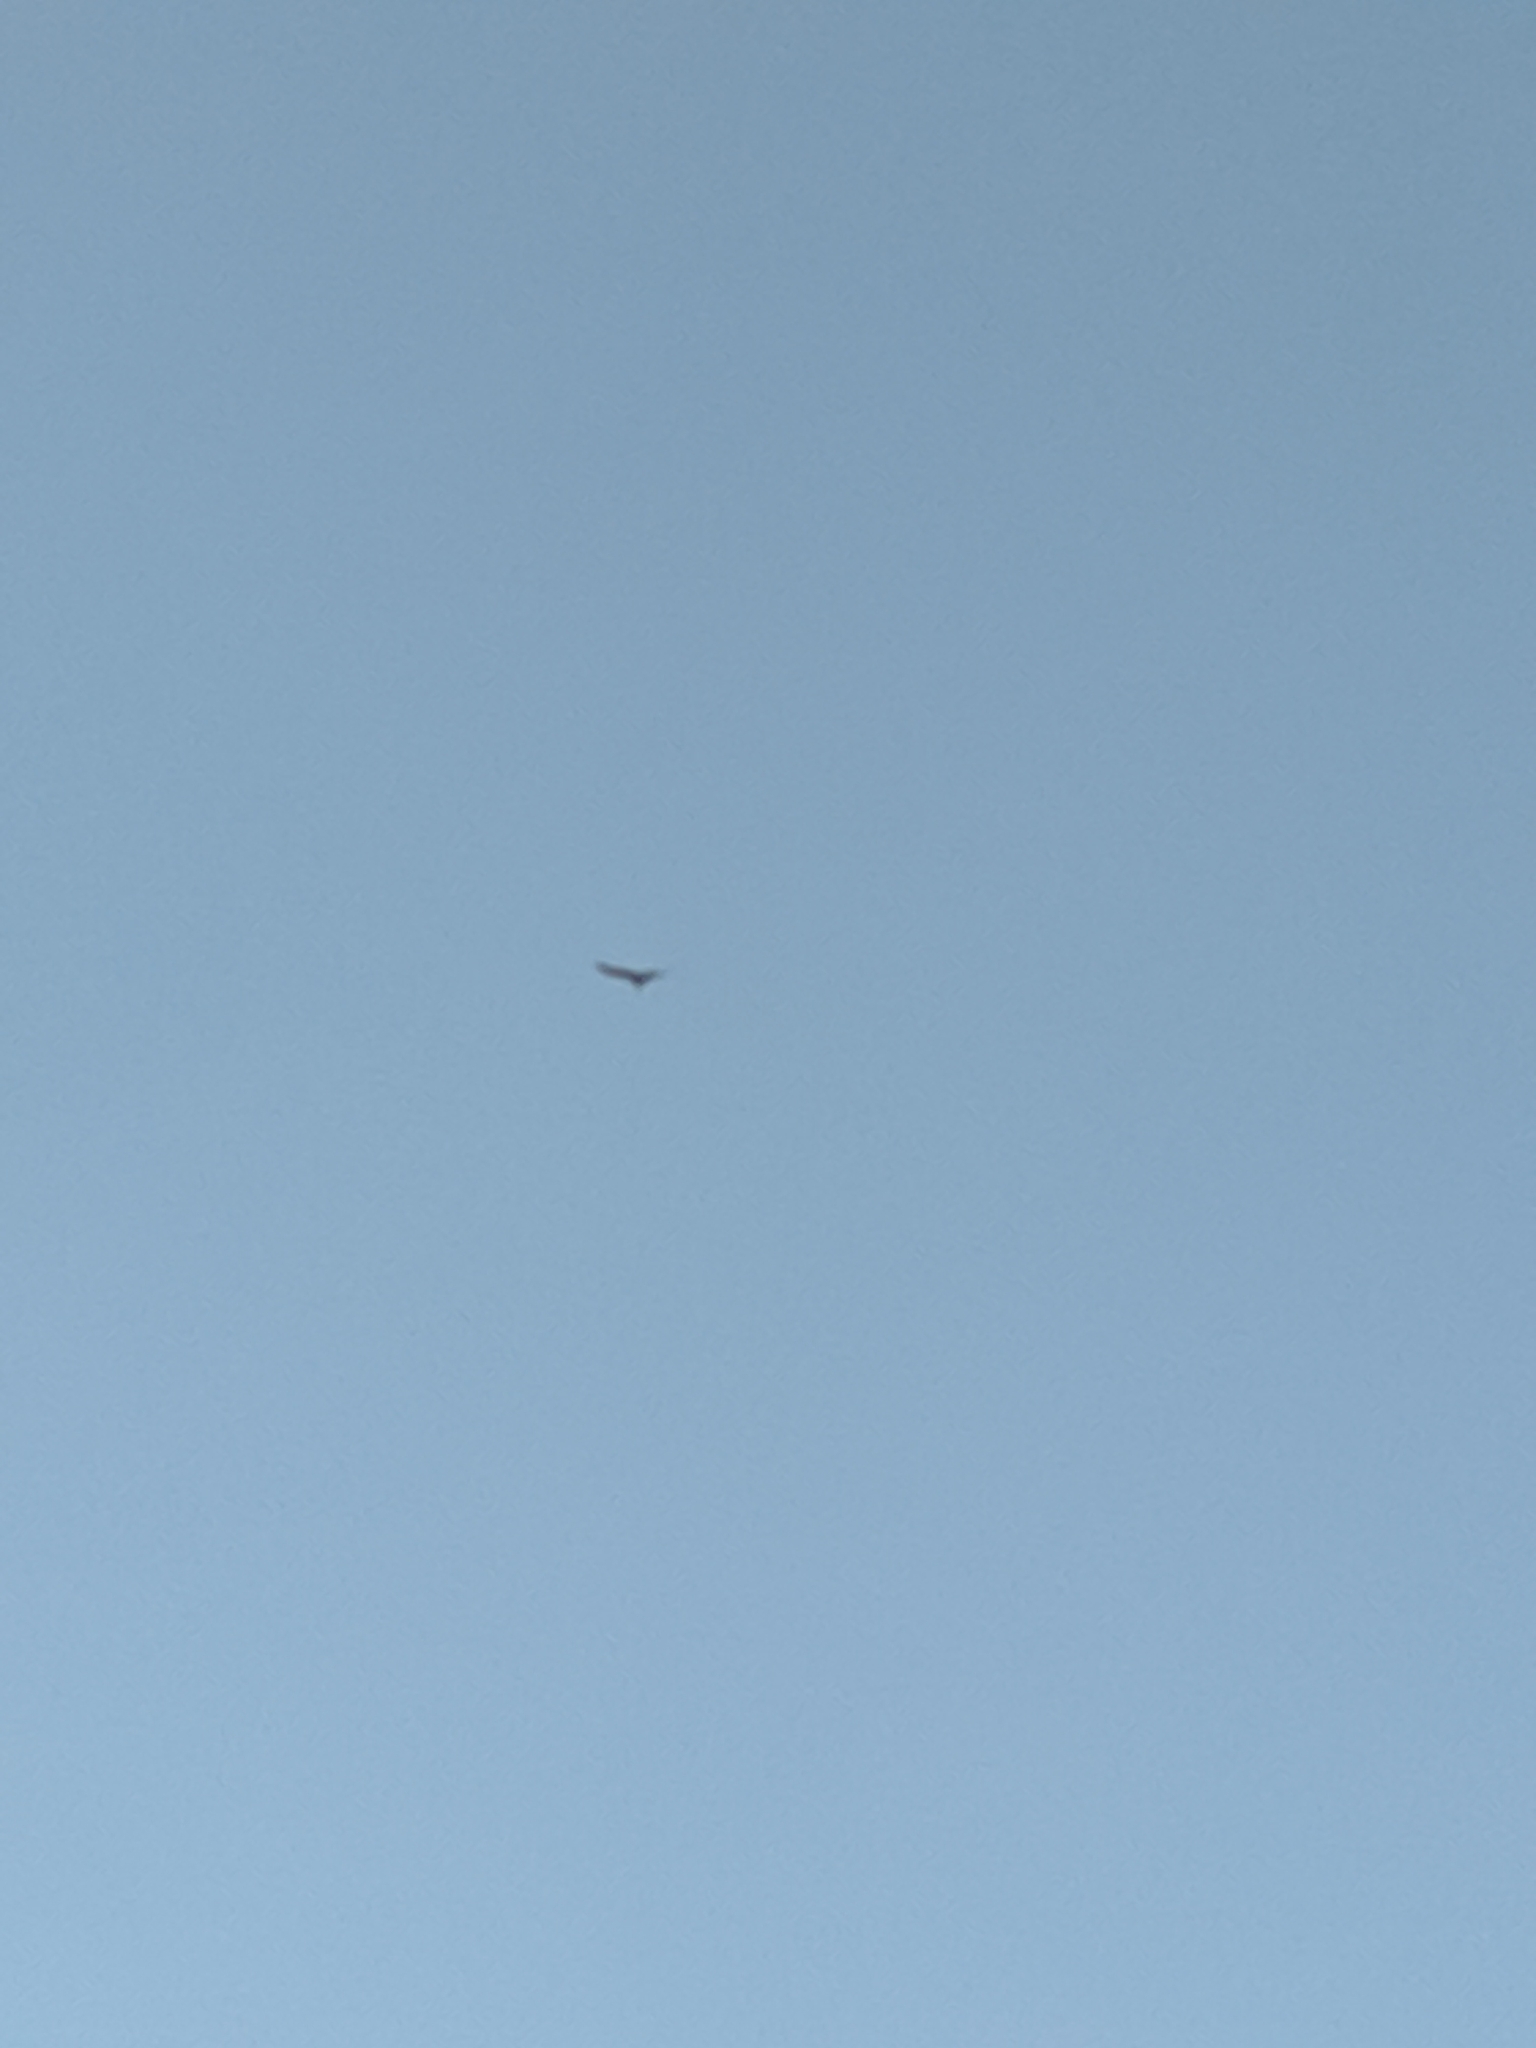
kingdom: Animalia
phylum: Chordata
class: Aves
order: Accipitriformes
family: Cathartidae
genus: Cathartes
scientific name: Cathartes aura
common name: Turkey vulture
